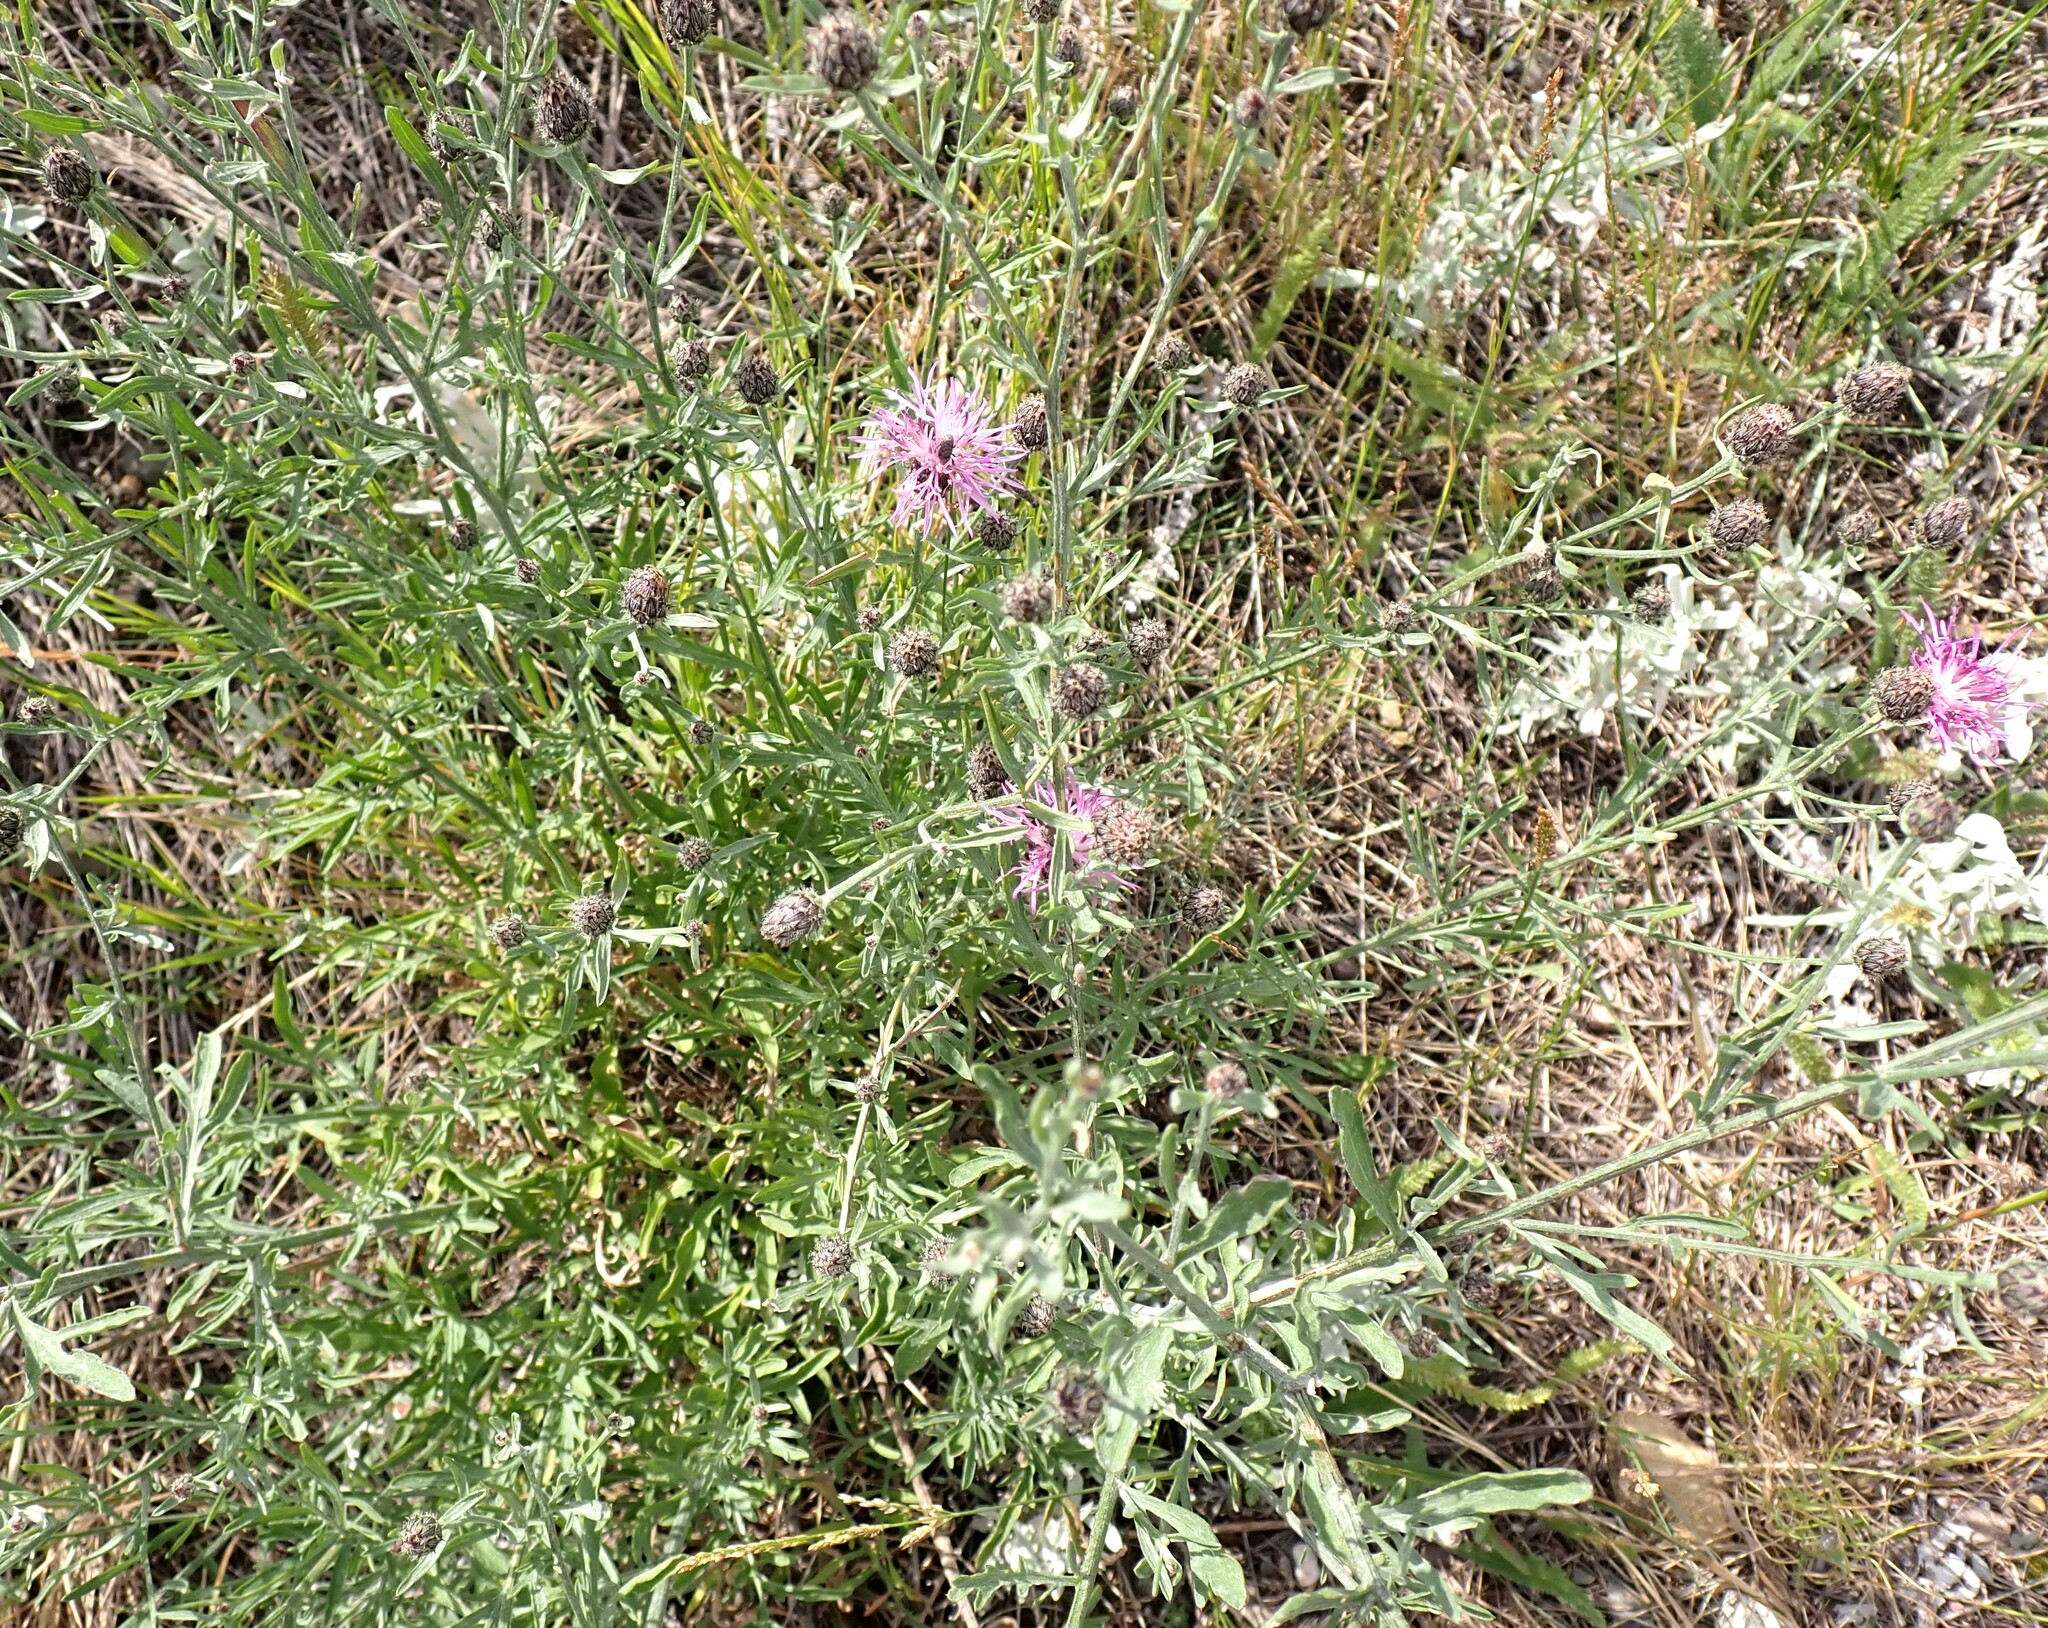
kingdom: Plantae
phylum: Tracheophyta
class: Magnoliopsida
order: Asterales
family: Asteraceae
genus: Centaurea
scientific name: Centaurea stoebe
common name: Spotted knapweed
